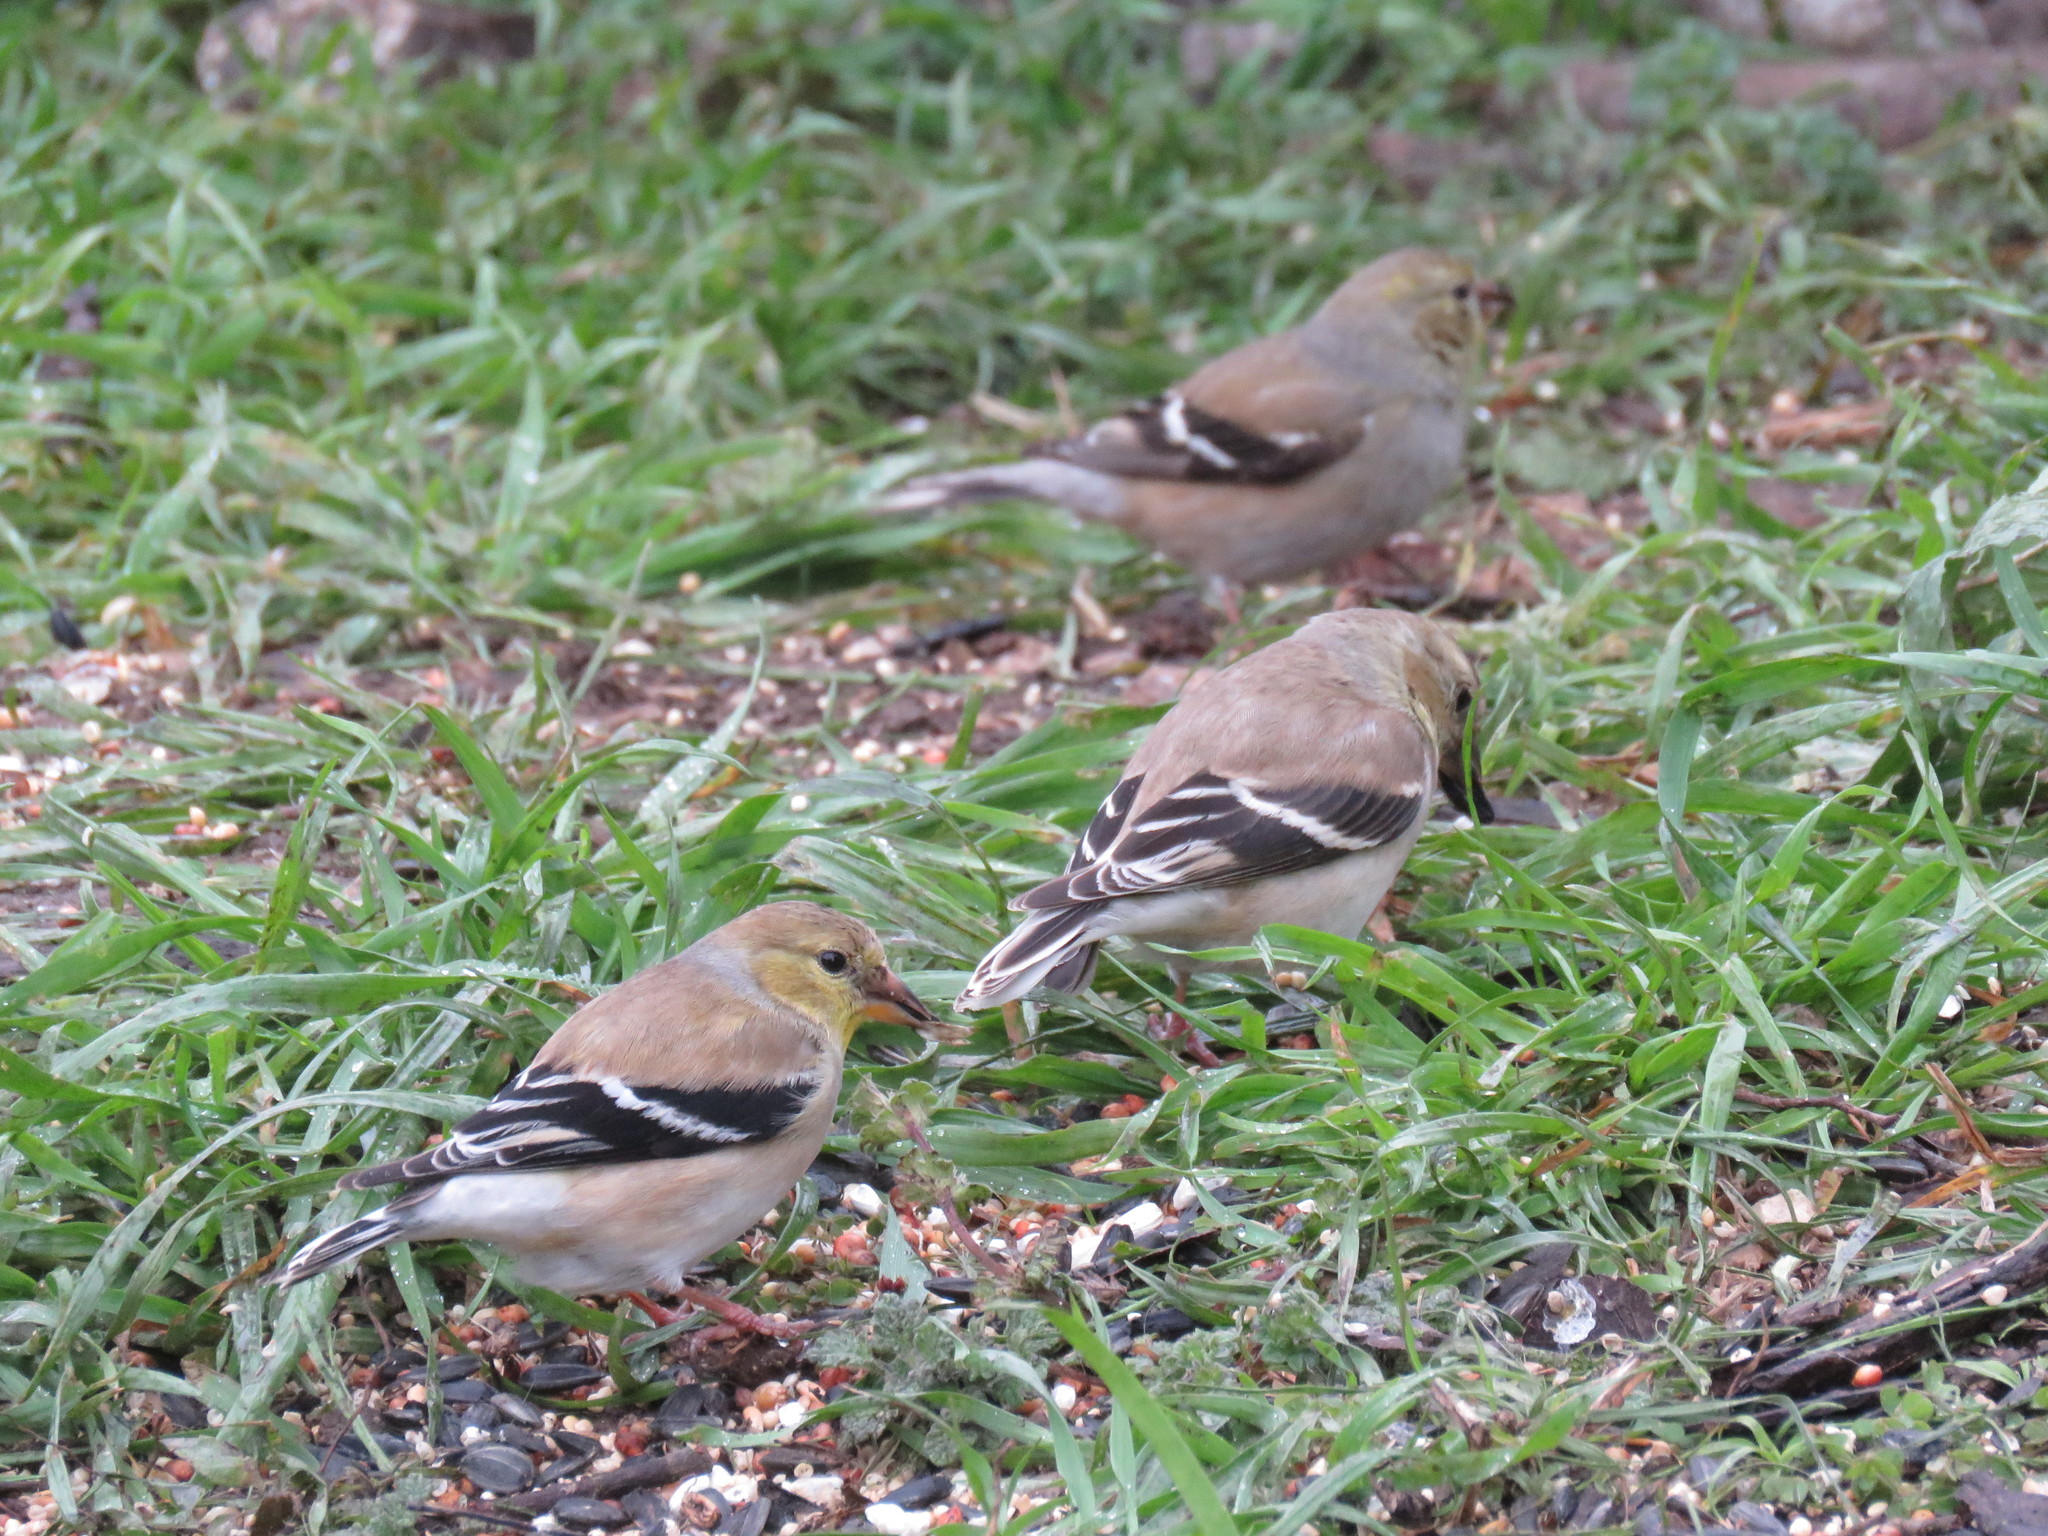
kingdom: Animalia
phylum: Chordata
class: Aves
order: Passeriformes
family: Fringillidae
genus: Spinus
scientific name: Spinus tristis
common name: American goldfinch
